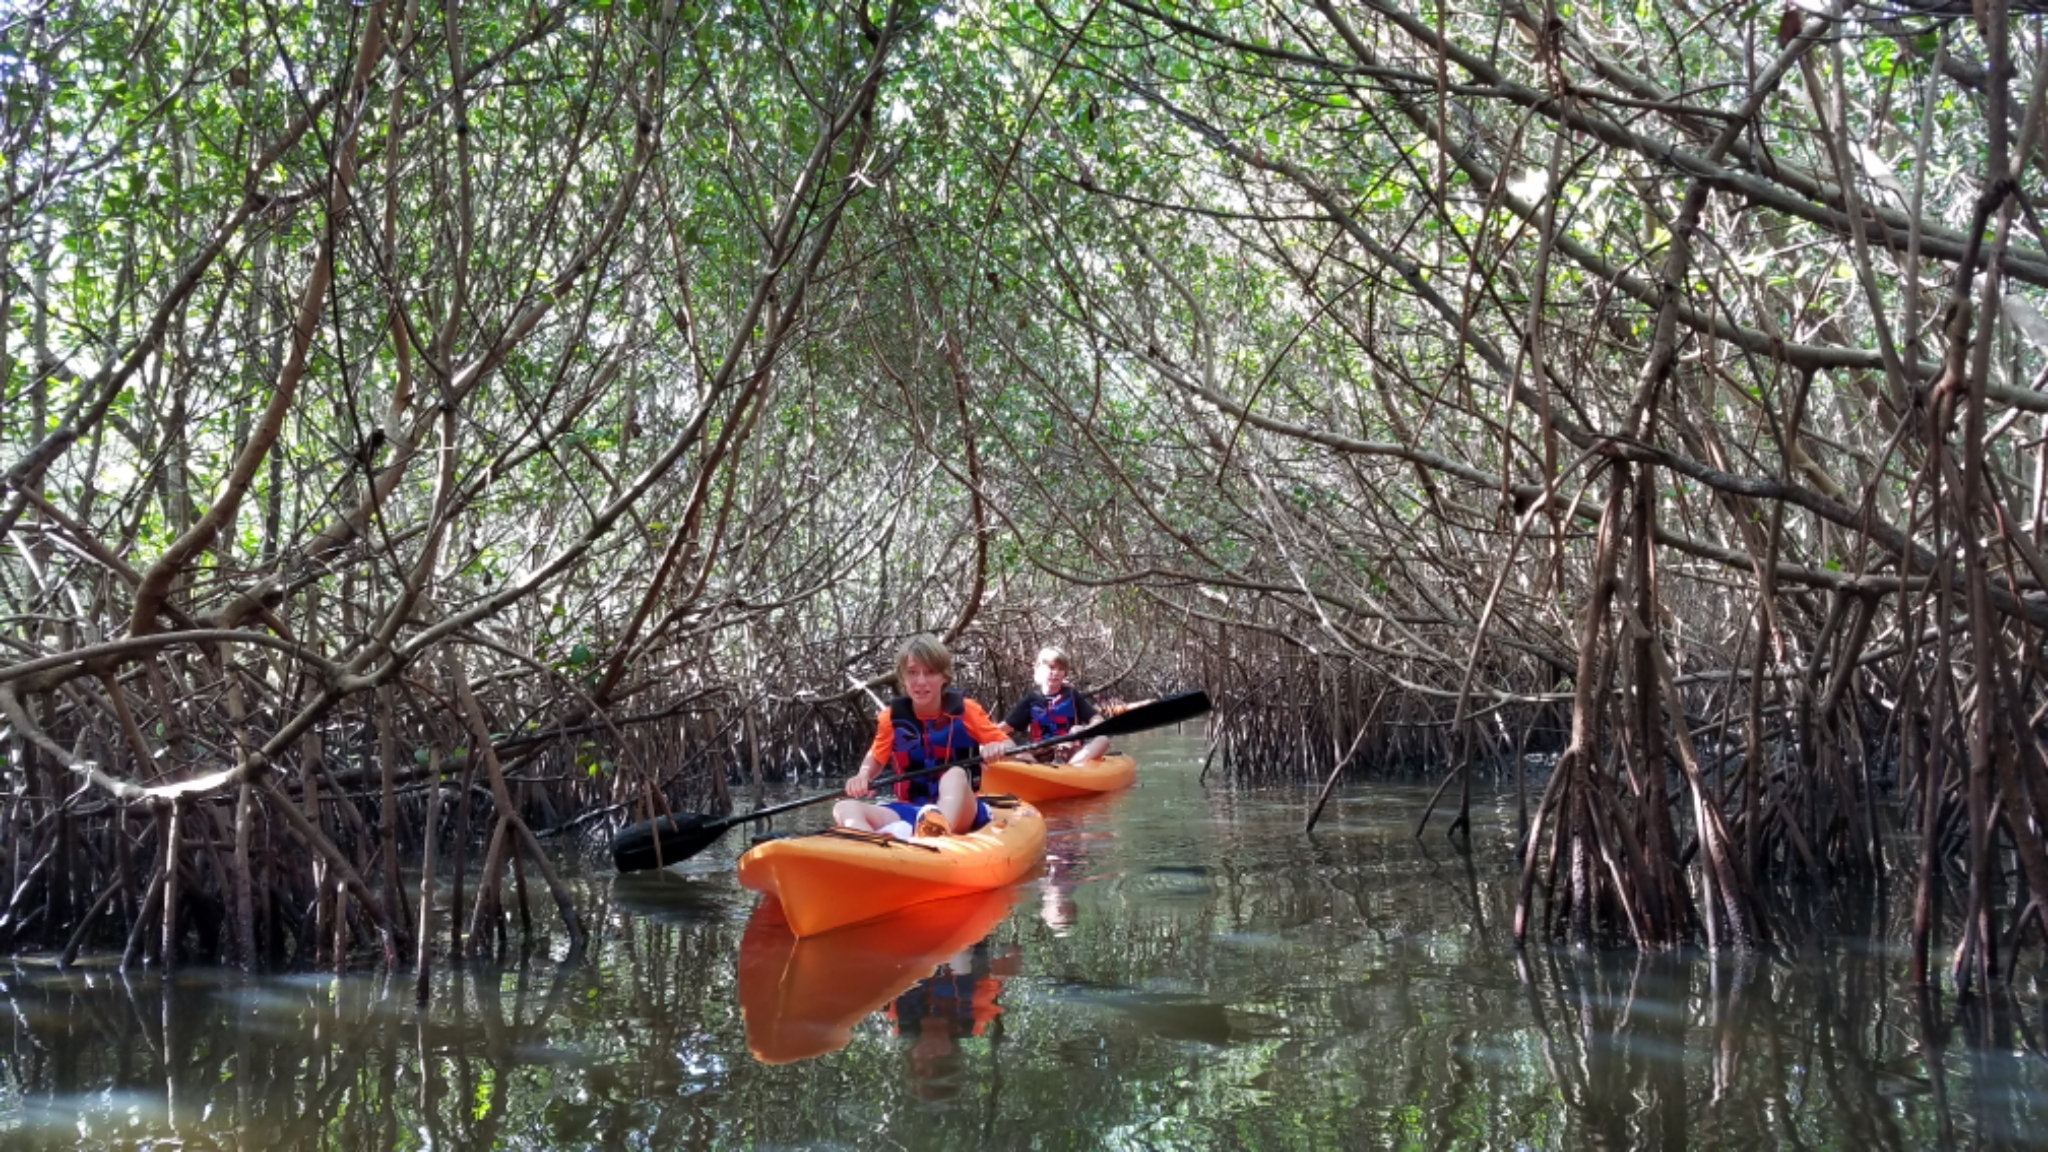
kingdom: Plantae
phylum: Tracheophyta
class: Magnoliopsida
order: Malpighiales
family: Rhizophoraceae
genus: Rhizophora
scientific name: Rhizophora mangle
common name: Red mangrove
